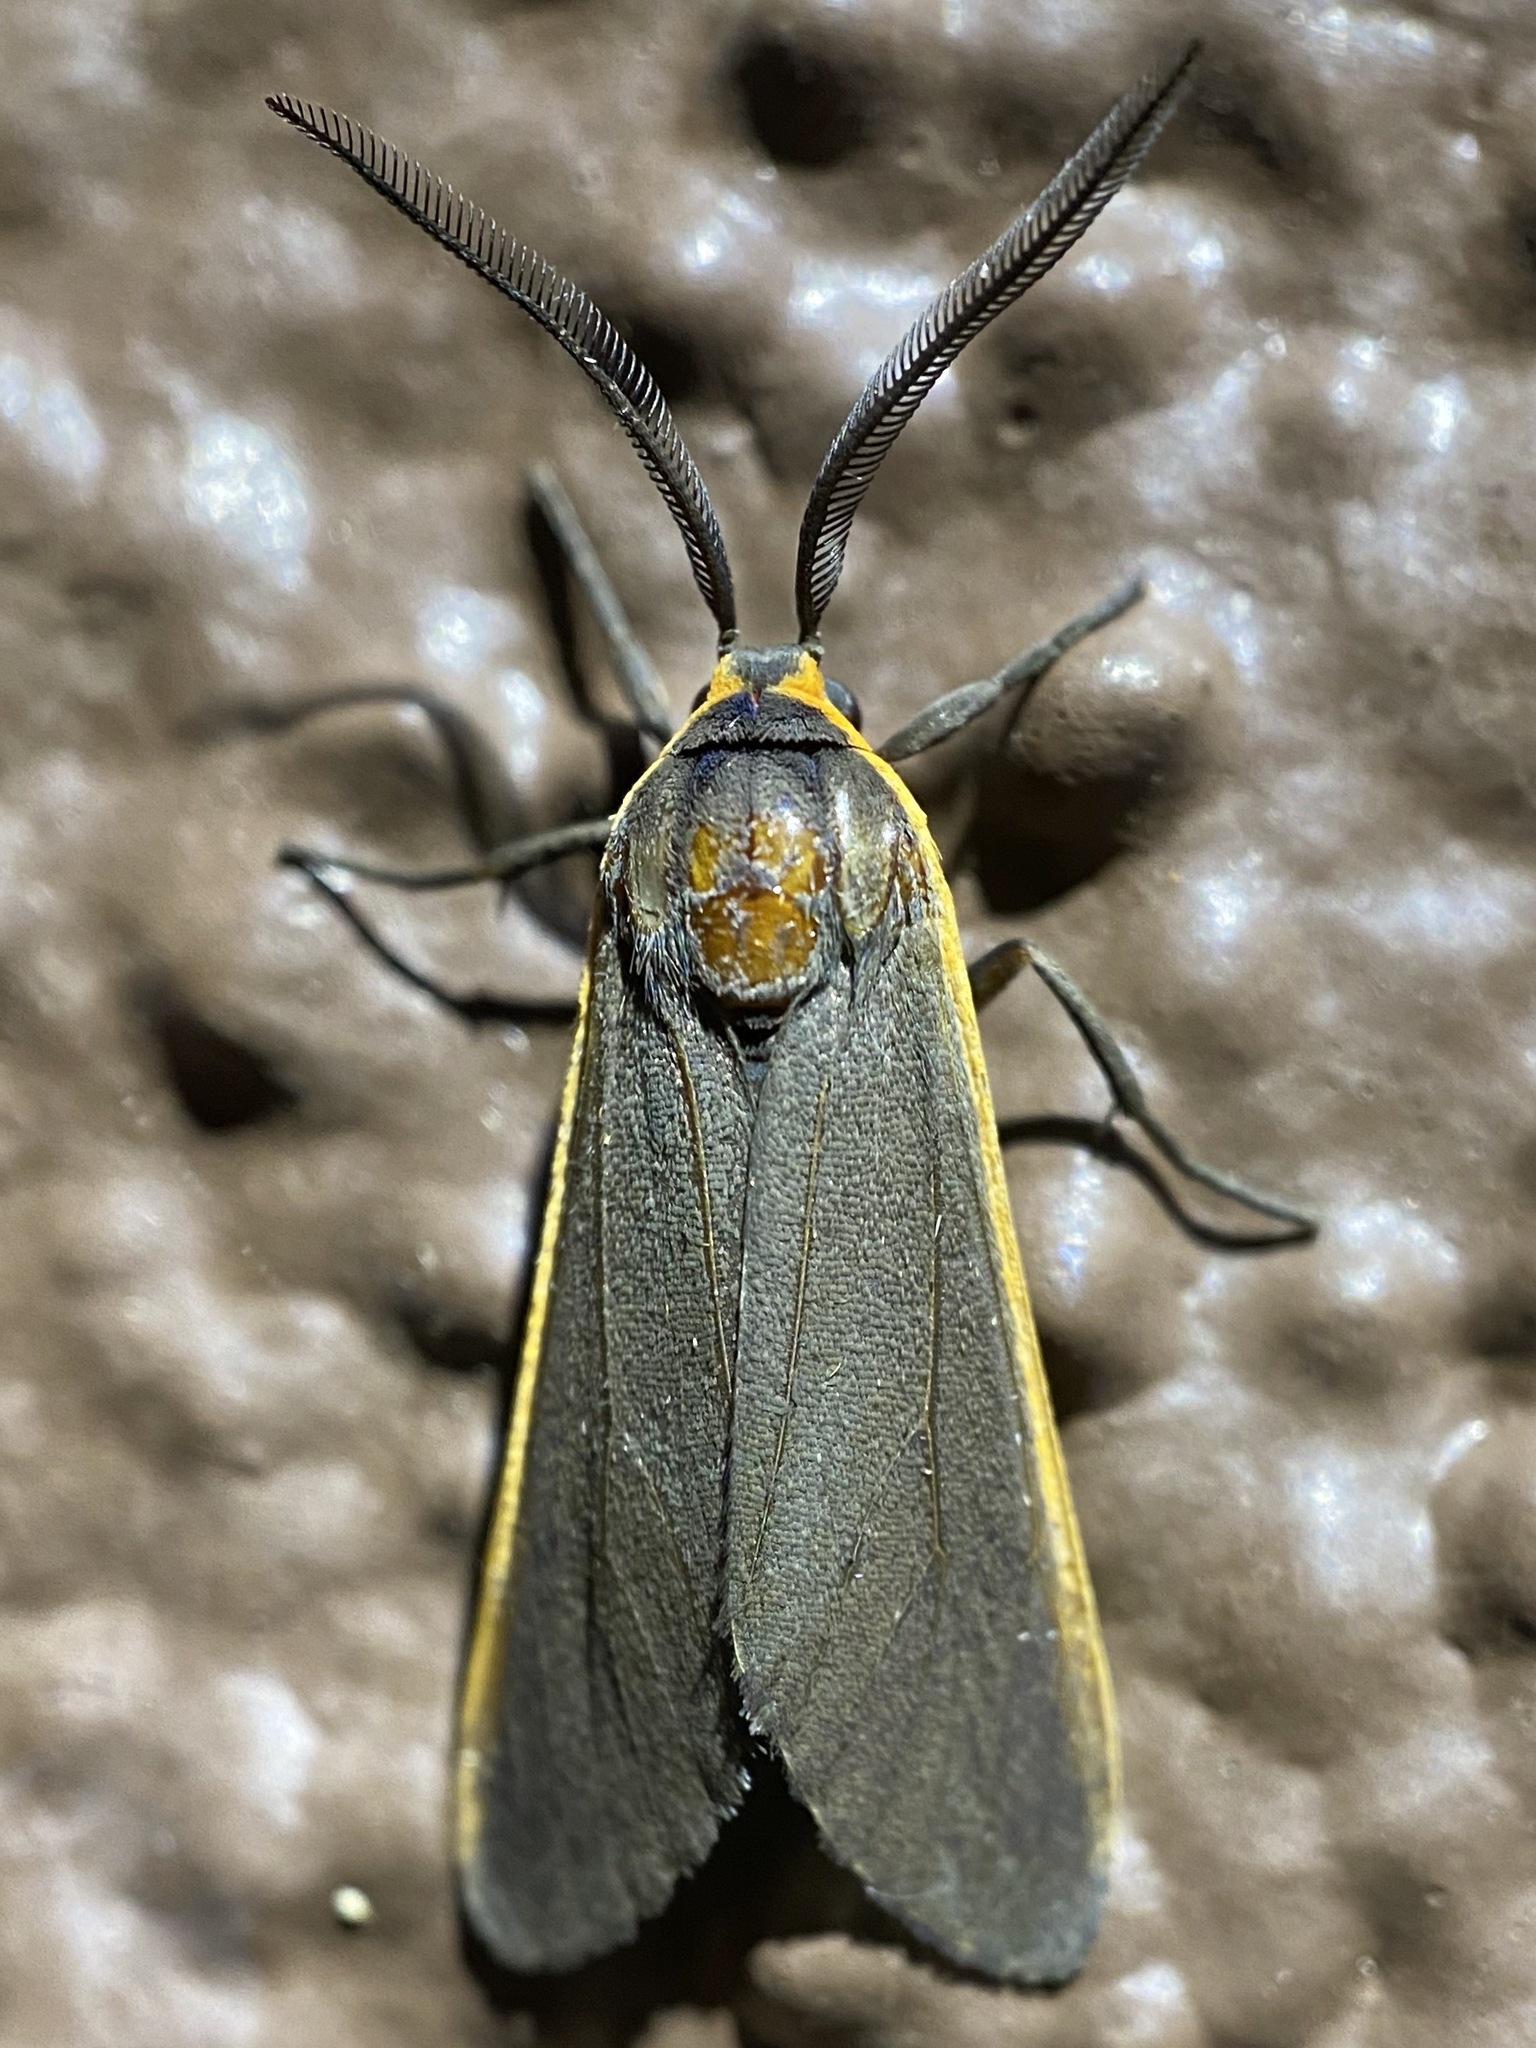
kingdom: Animalia
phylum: Arthropoda
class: Insecta
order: Lepidoptera
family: Erebidae
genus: Euchaetes
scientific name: Euchaetes antica
